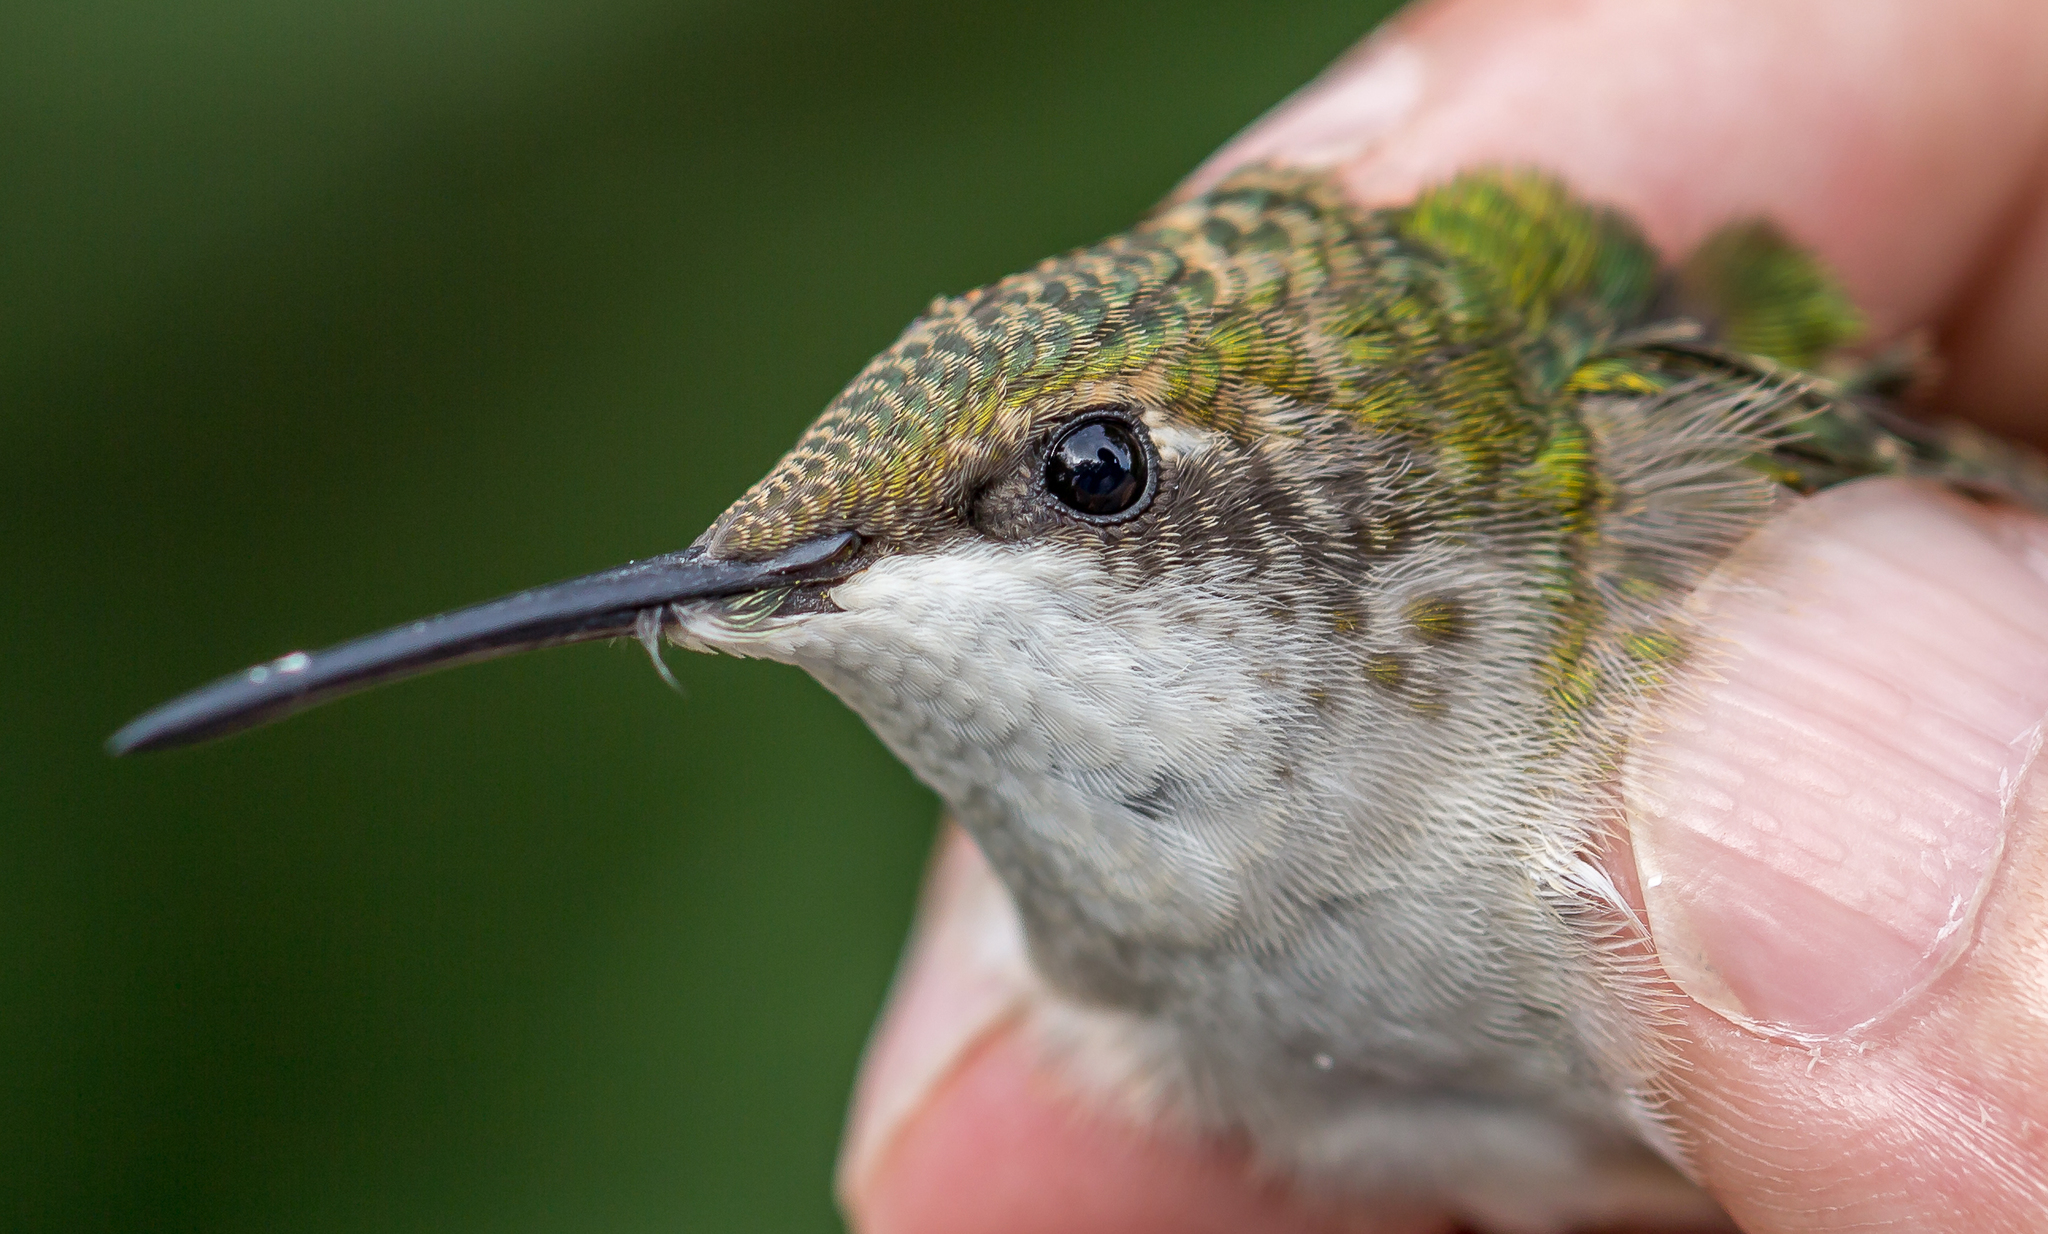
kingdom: Animalia
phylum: Chordata
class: Aves
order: Apodiformes
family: Trochilidae
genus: Archilochus
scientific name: Archilochus colubris
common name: Ruby-throated hummingbird
